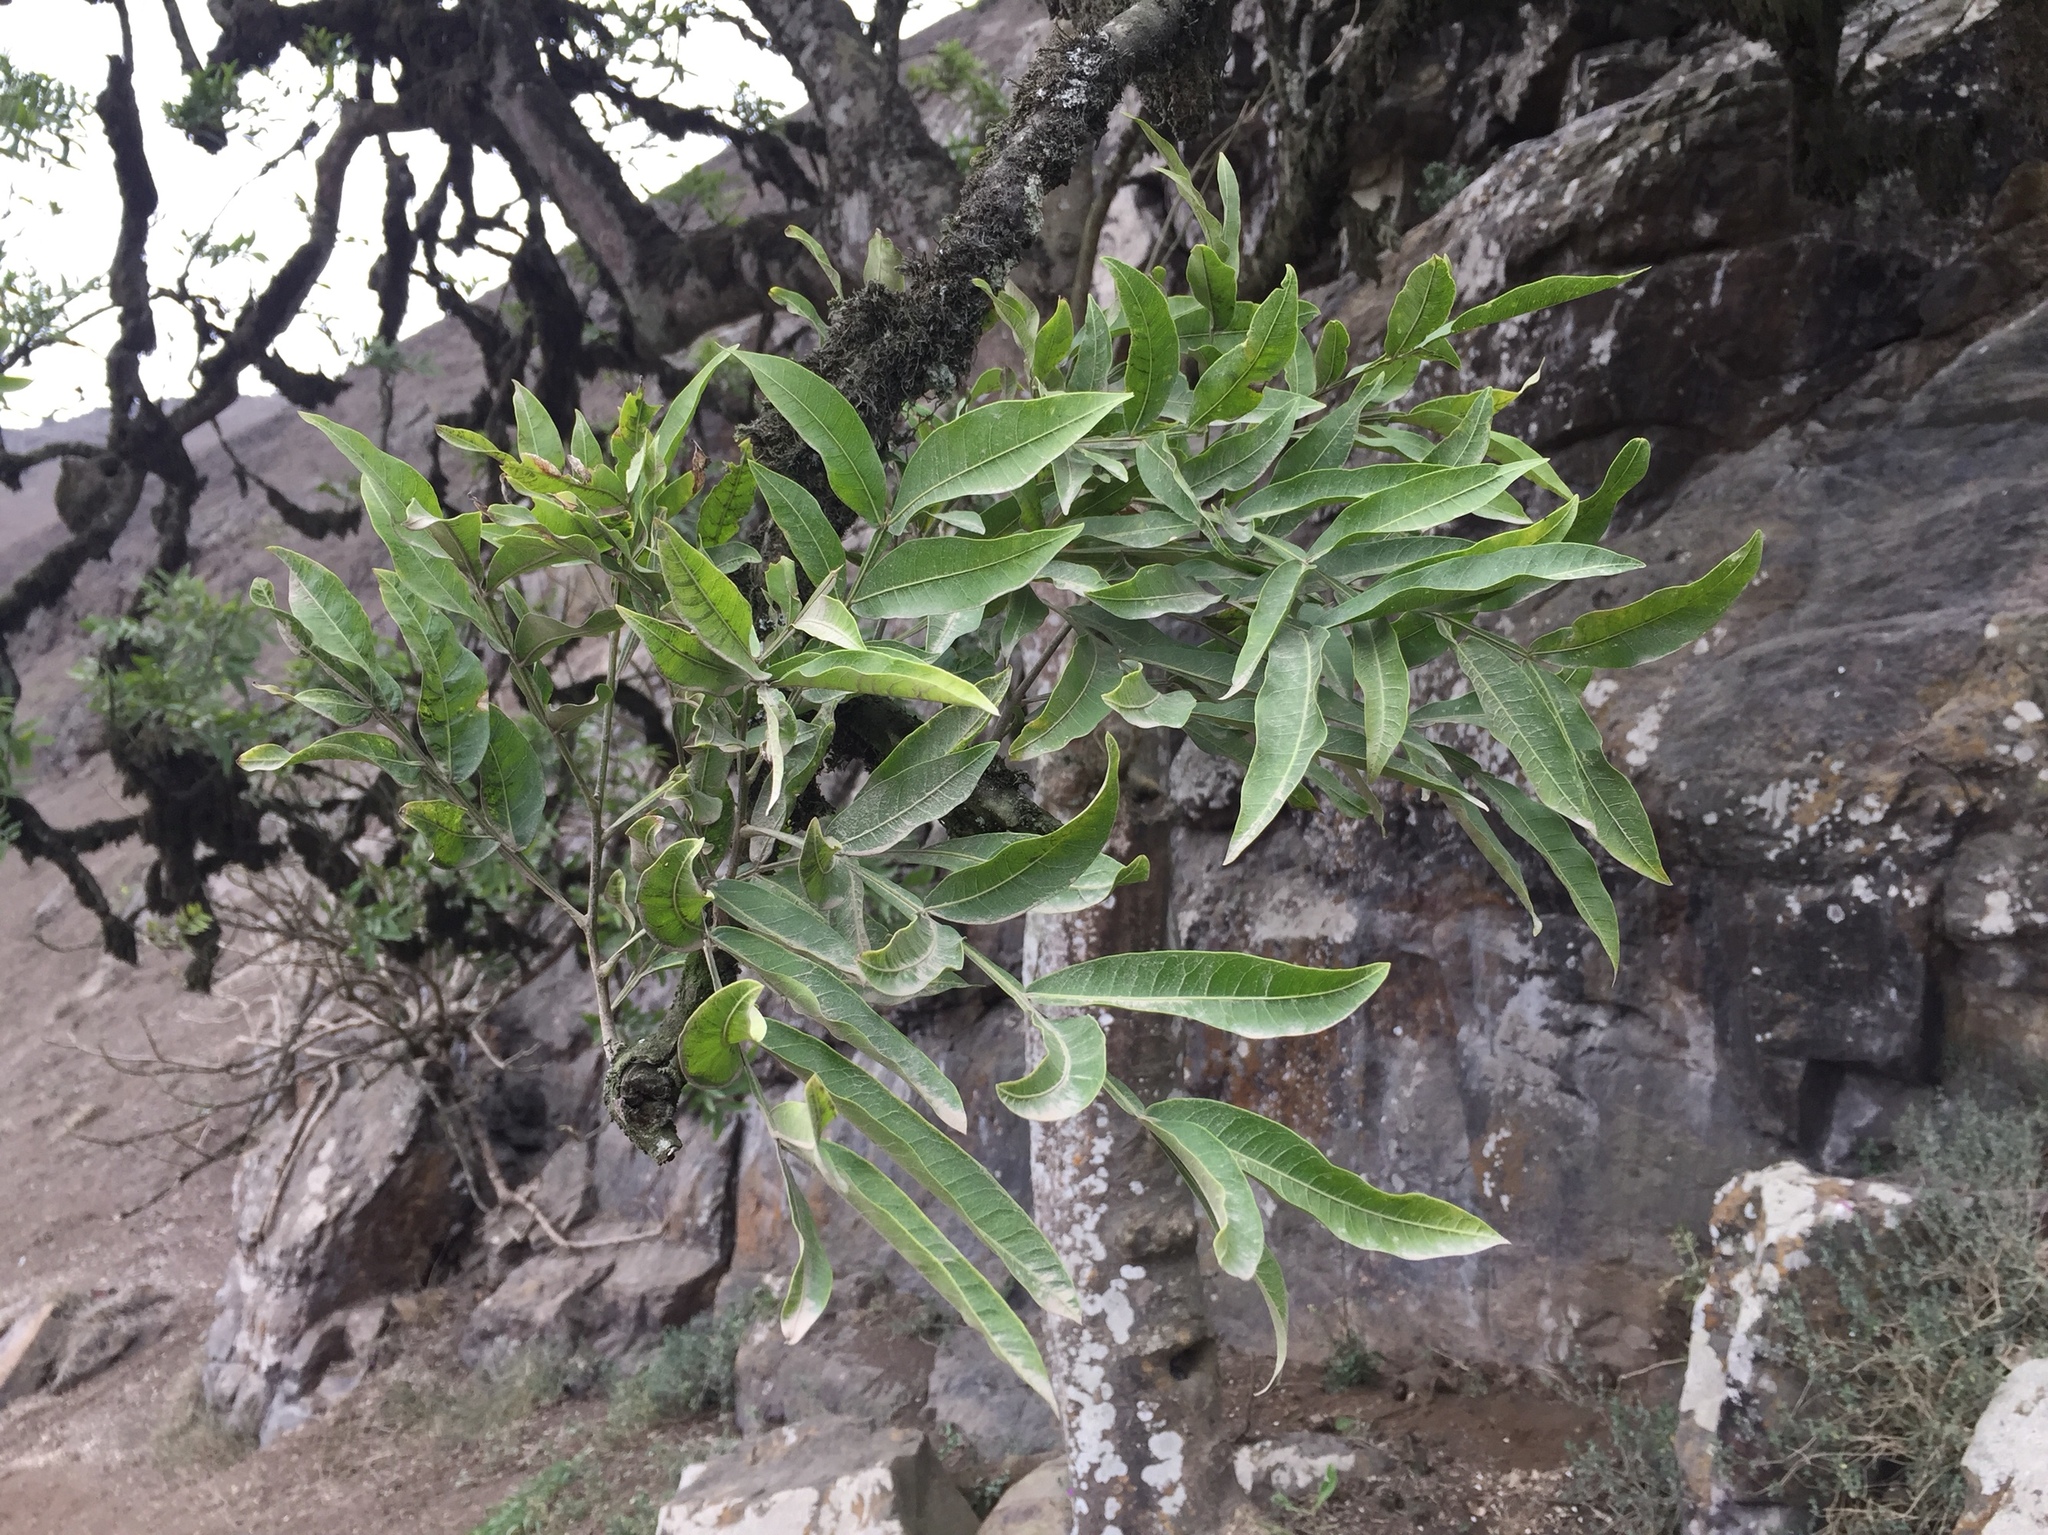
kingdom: Plantae
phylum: Tracheophyta
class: Magnoliopsida
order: Sapindales
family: Sapindaceae
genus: Sapindus
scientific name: Sapindus saponaria
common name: Wingleaf soapberry
